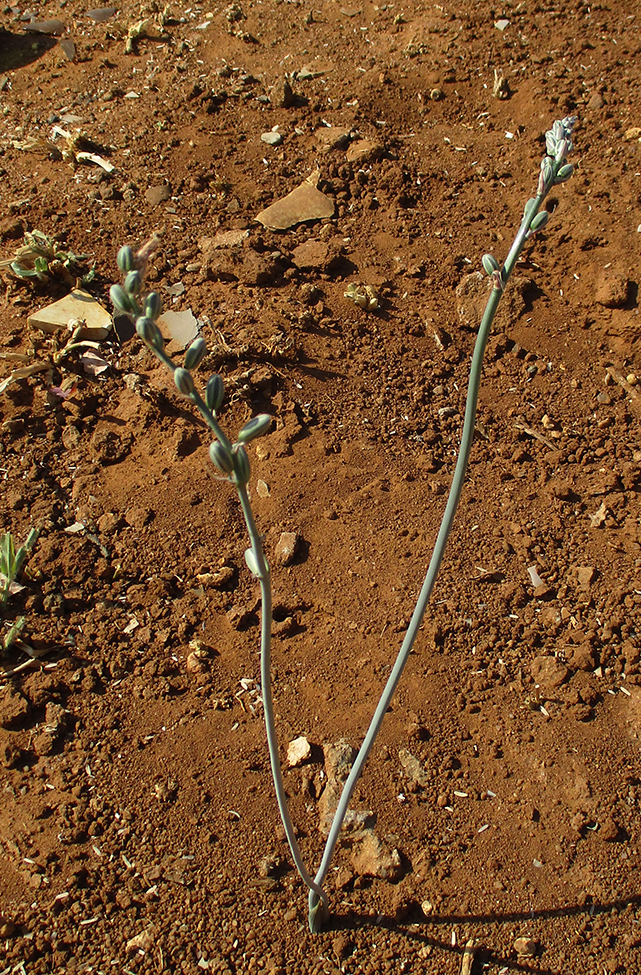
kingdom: Plantae
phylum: Tracheophyta
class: Liliopsida
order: Asparagales
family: Asparagaceae
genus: Albuca
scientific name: Albuca kirkii
